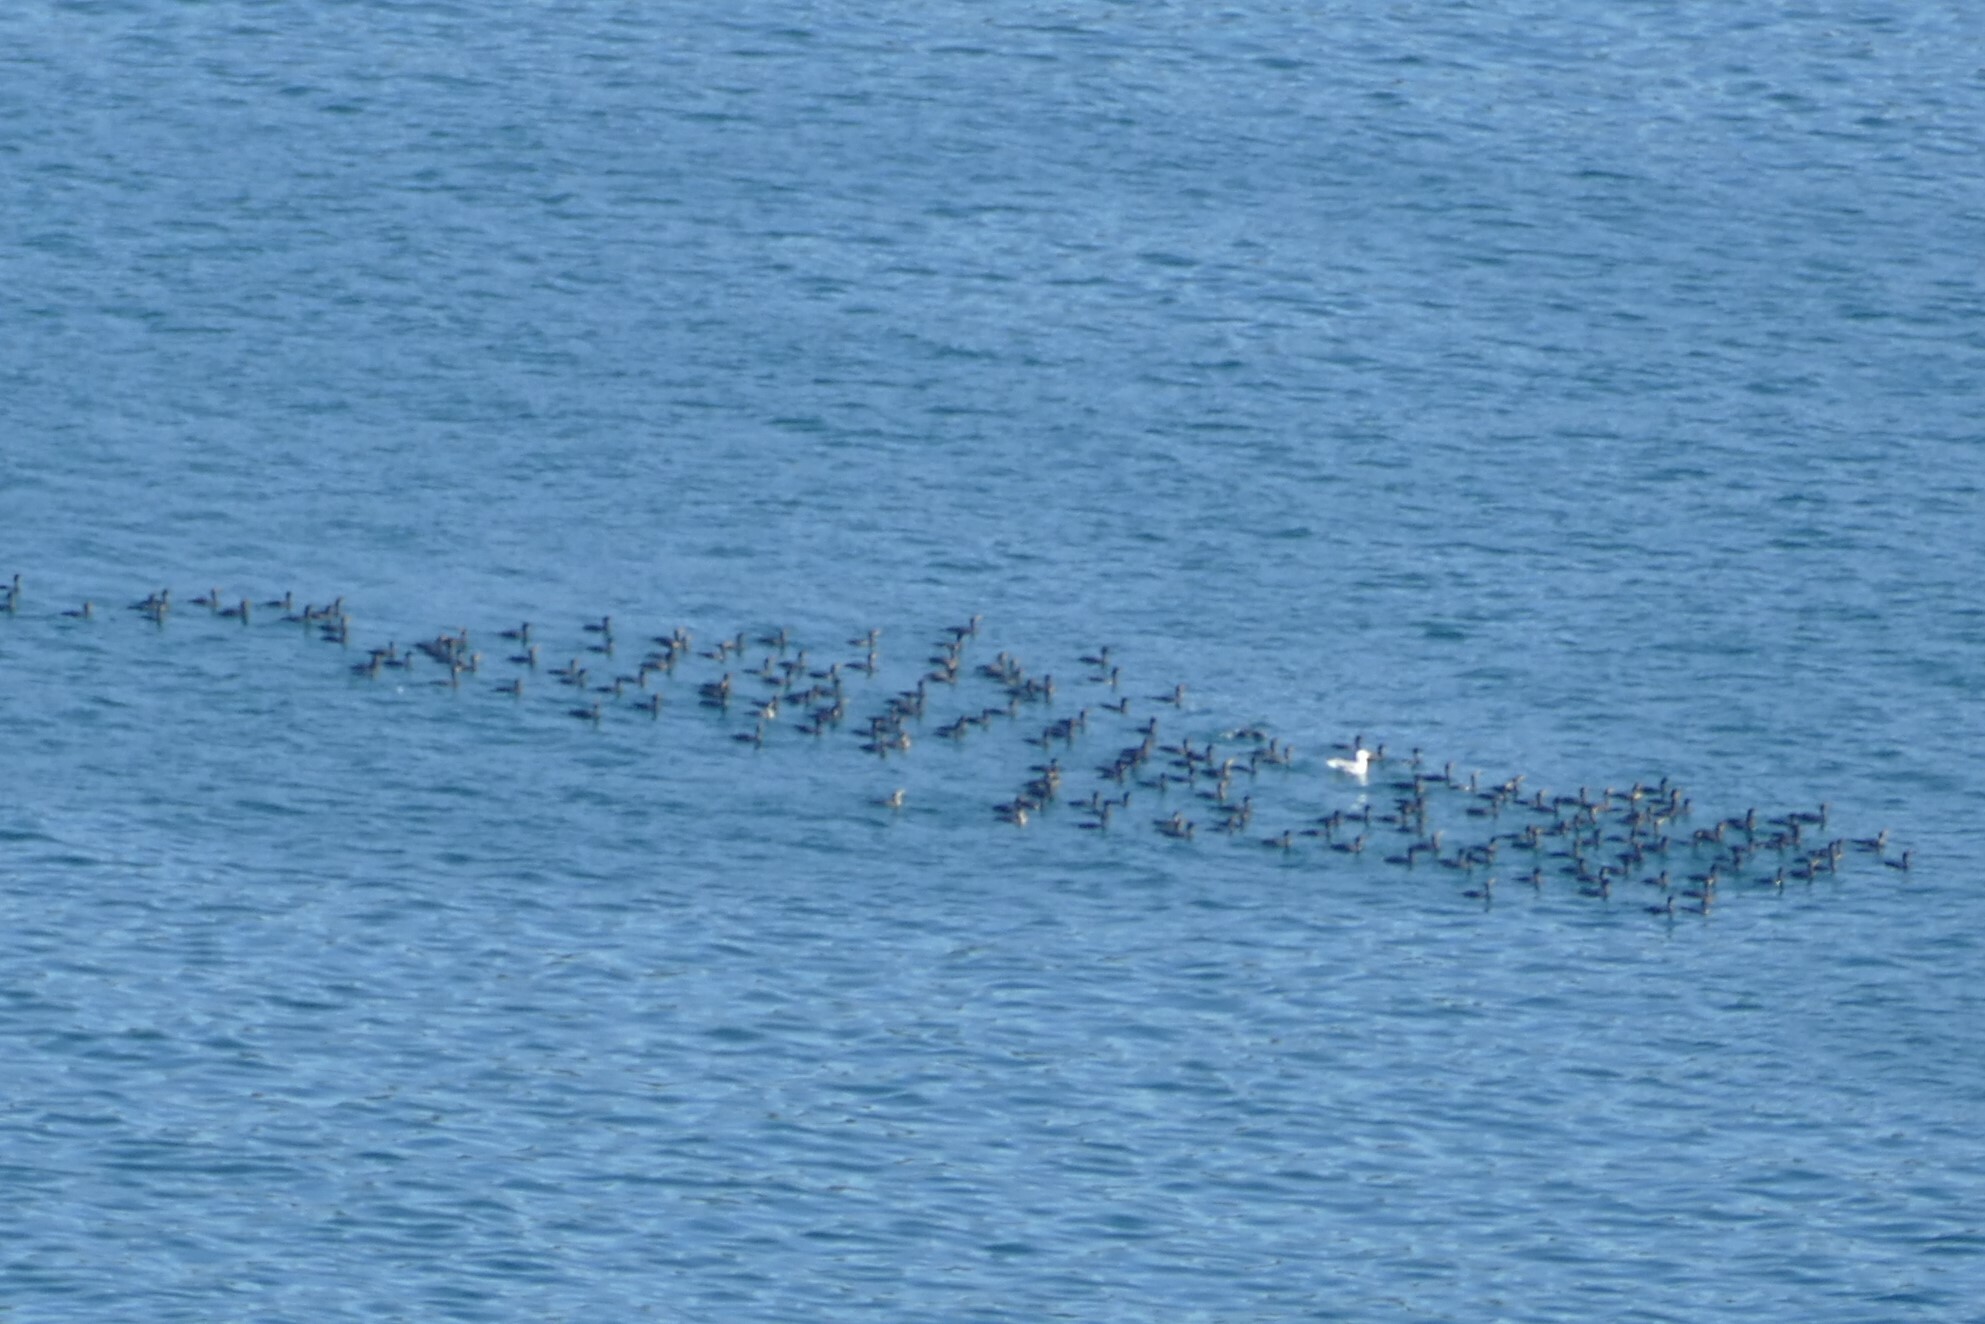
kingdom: Animalia
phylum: Chordata
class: Aves
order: Suliformes
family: Phalacrocoracidae
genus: Phalacrocorax
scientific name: Phalacrocorax aristotelis
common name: European shag
